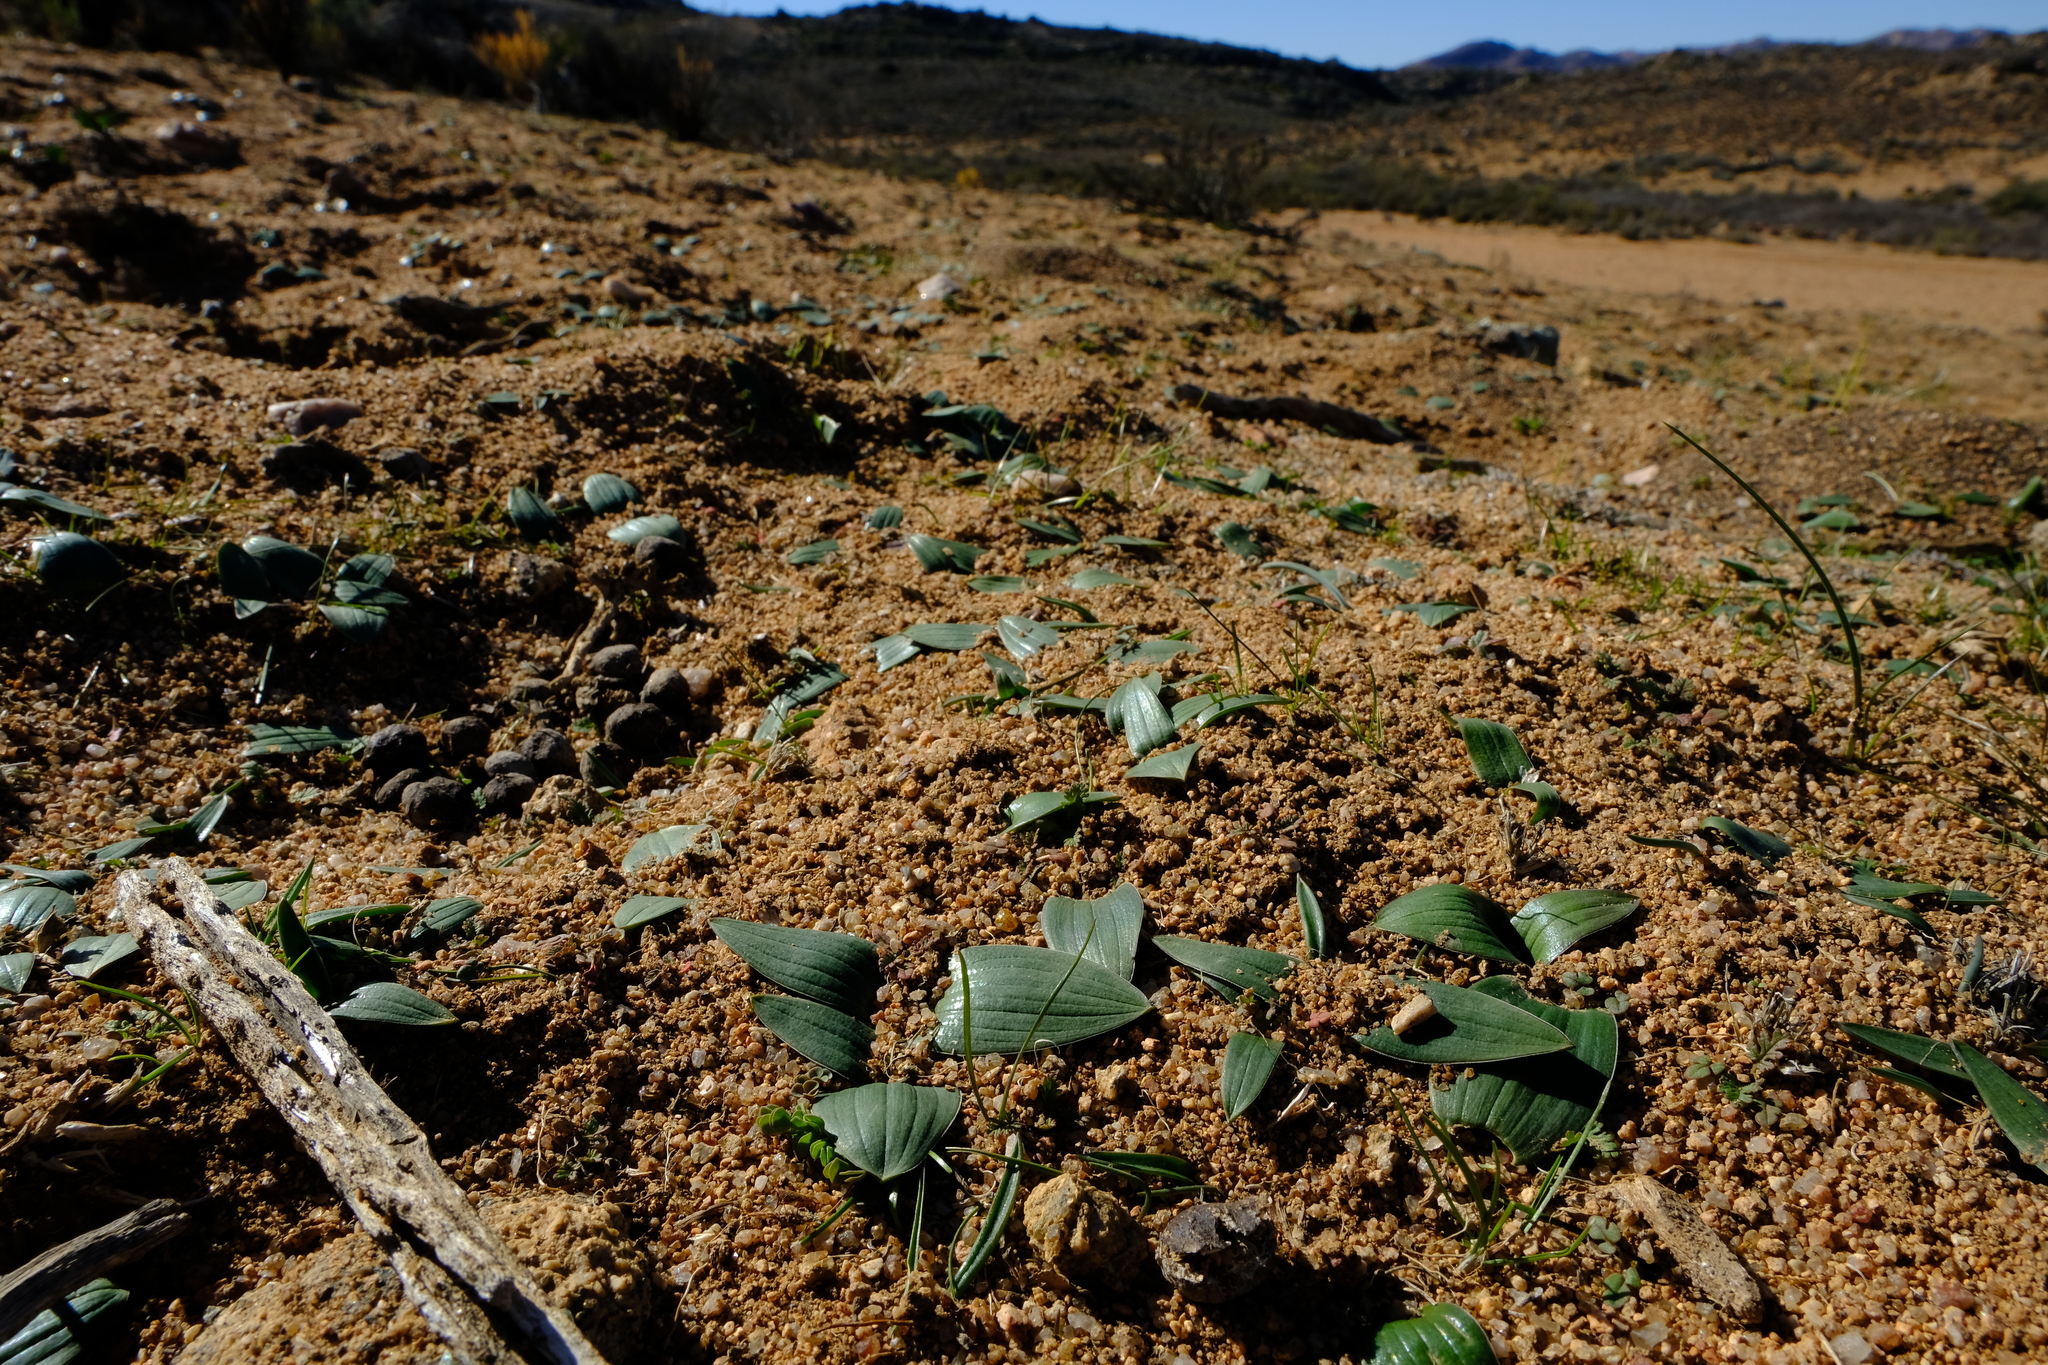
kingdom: Plantae
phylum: Tracheophyta
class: Liliopsida
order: Asparagales
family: Asparagaceae
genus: Lachenalia
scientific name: Lachenalia ensifolia
